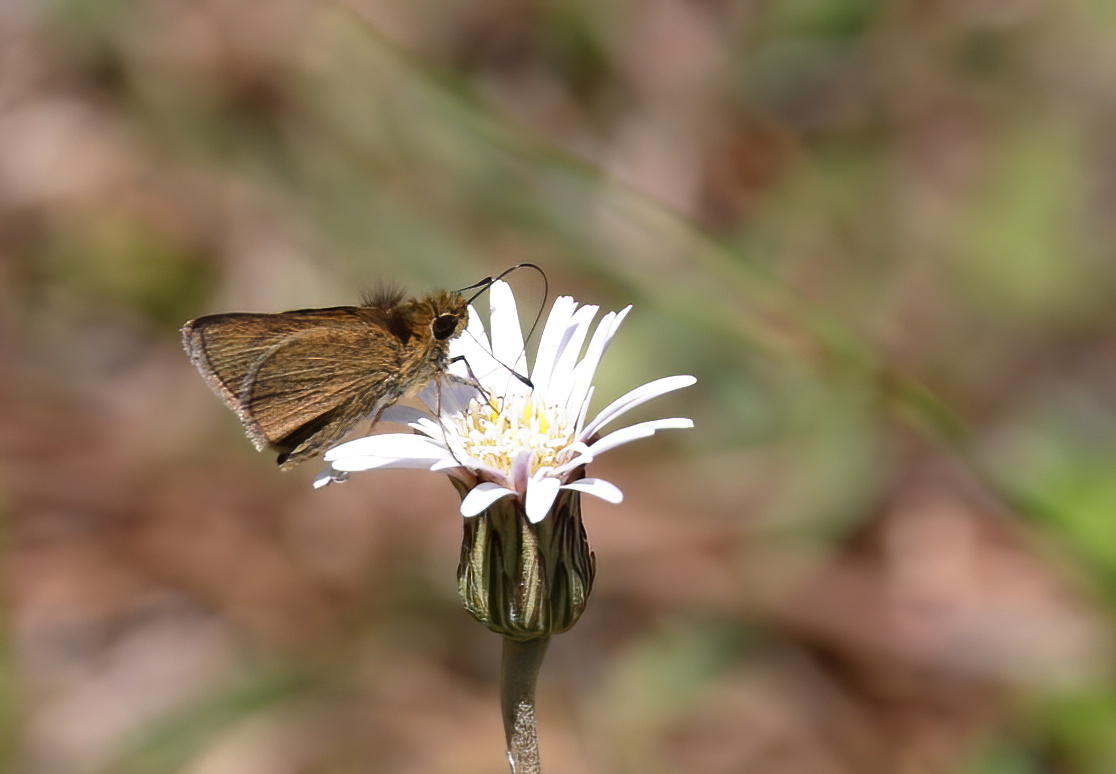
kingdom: Animalia
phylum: Arthropoda
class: Insecta
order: Lepidoptera
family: Hesperiidae
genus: Nastra
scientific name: Nastra lherminier
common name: Swarthy skipper
